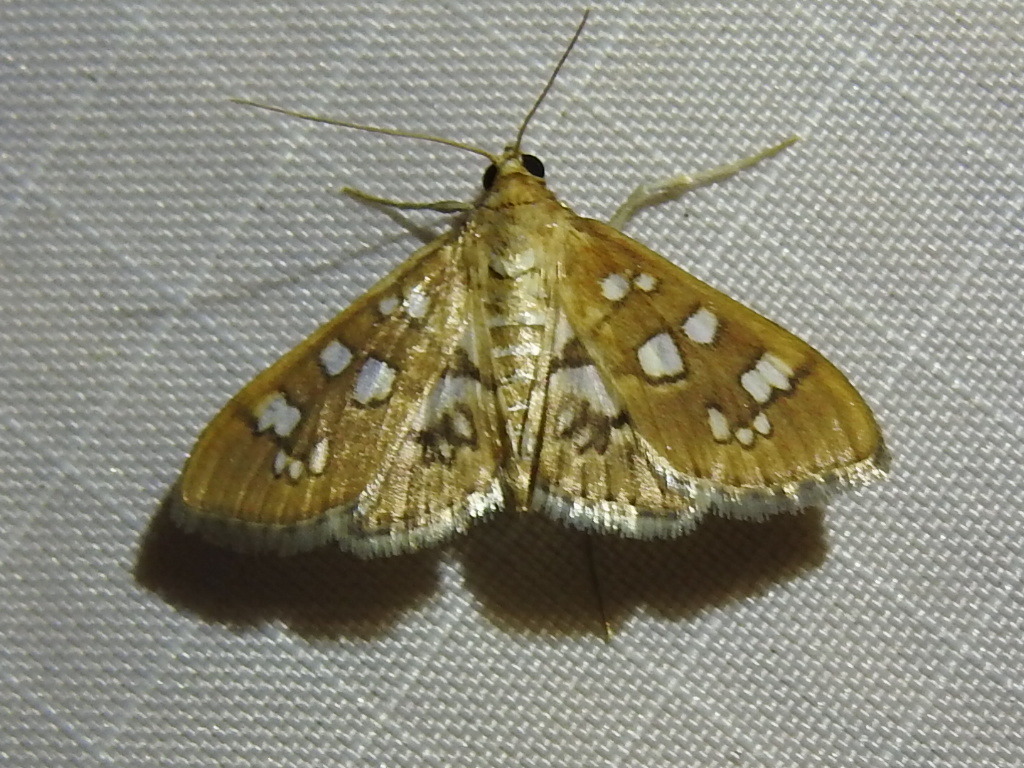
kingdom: Animalia
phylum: Arthropoda
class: Insecta
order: Lepidoptera
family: Crambidae
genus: Samea
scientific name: Samea baccatalis
